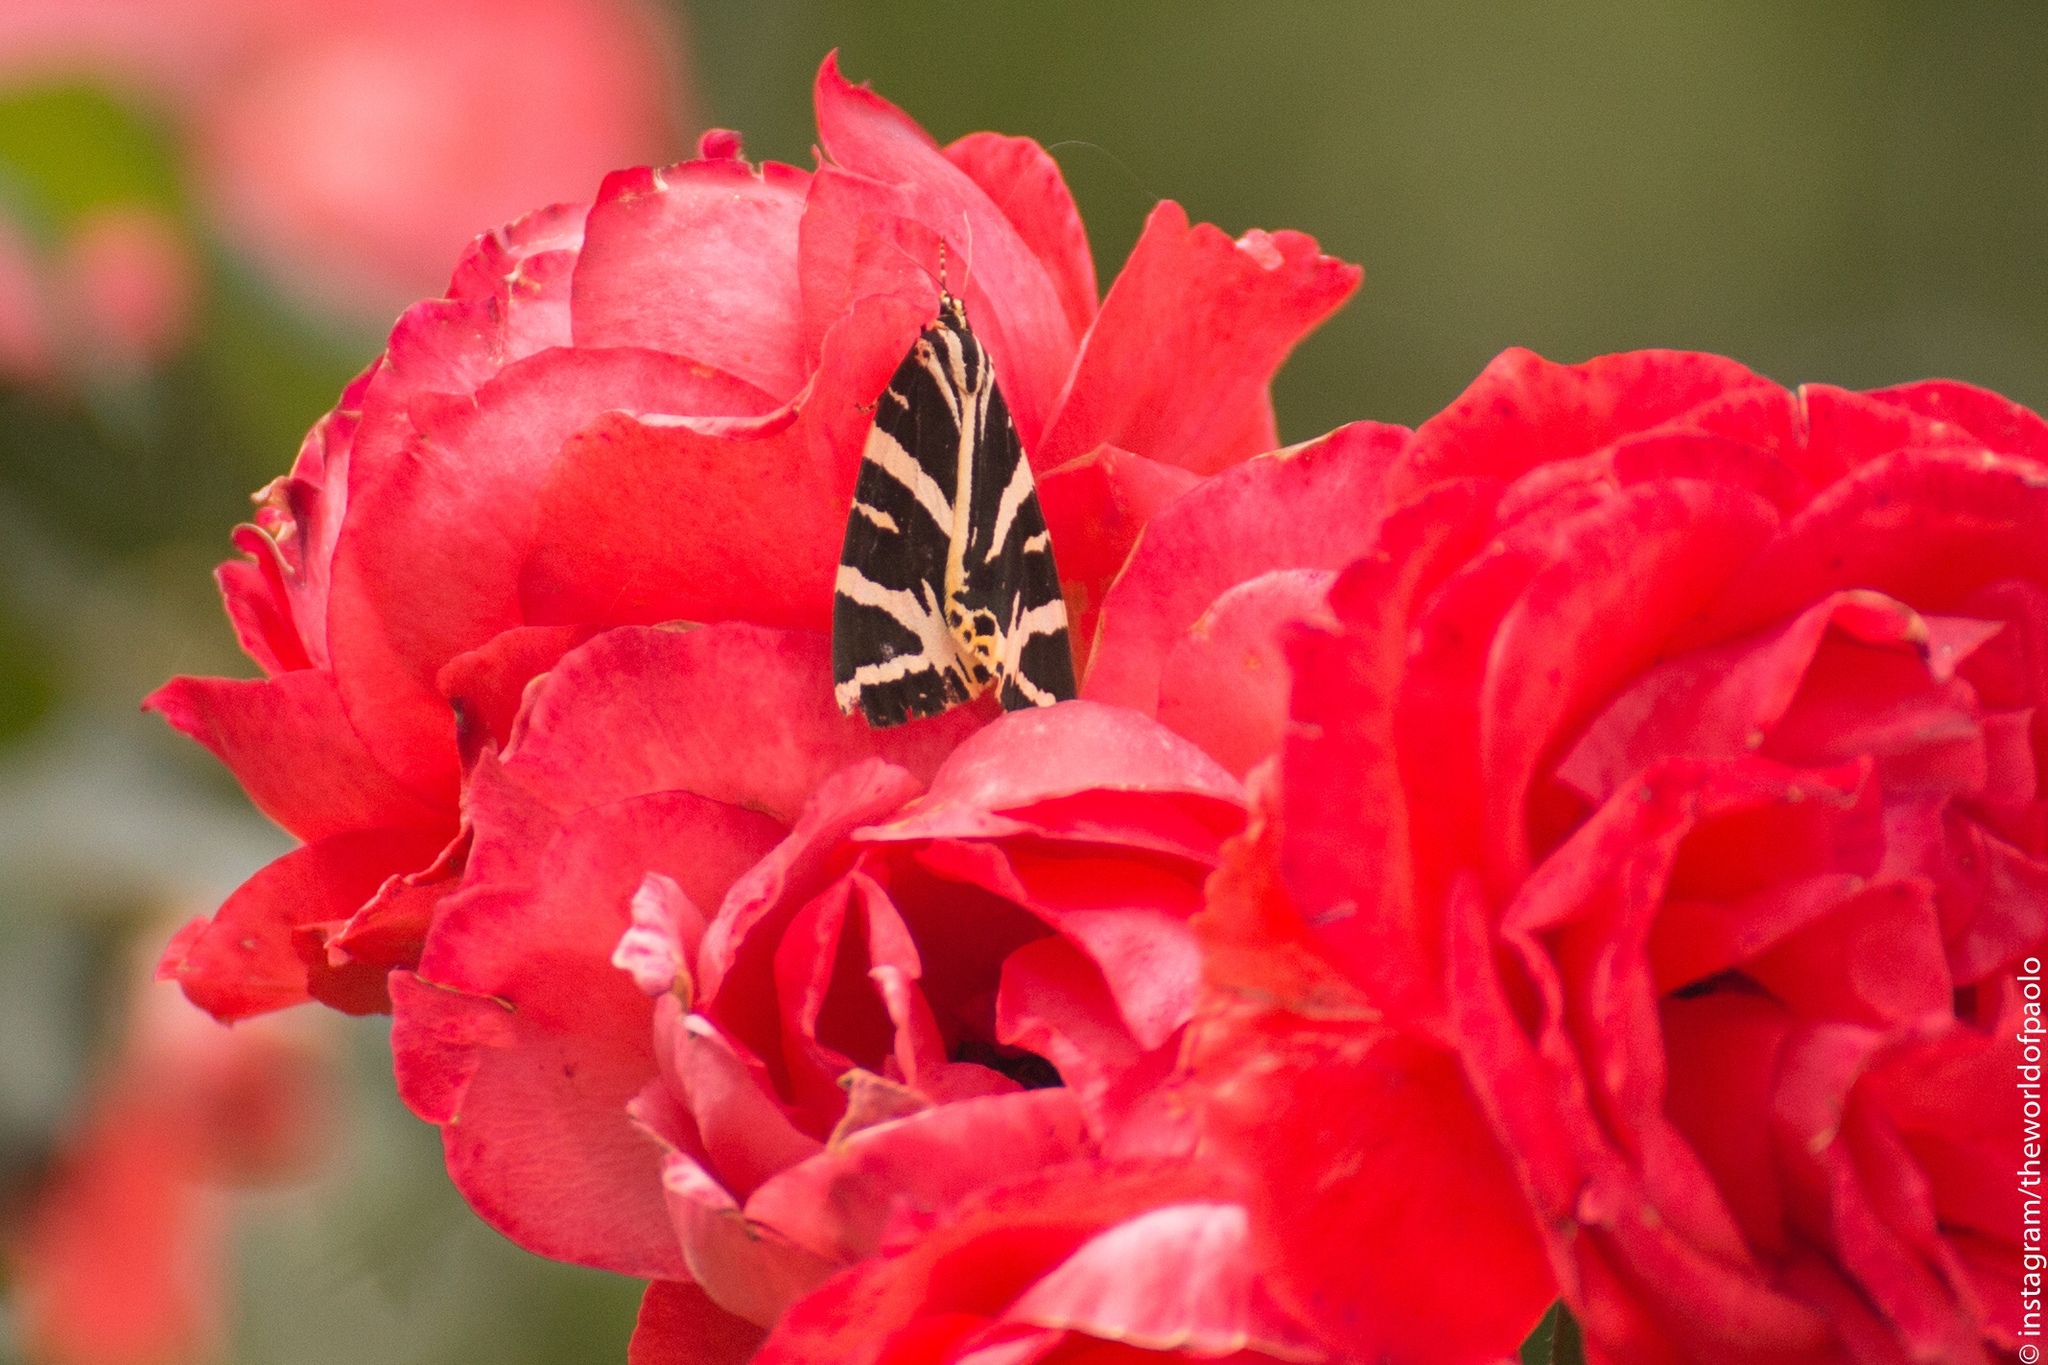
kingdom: Animalia
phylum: Arthropoda
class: Insecta
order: Lepidoptera
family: Erebidae
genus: Euplagia
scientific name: Euplagia quadripunctaria
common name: Jersey tiger
